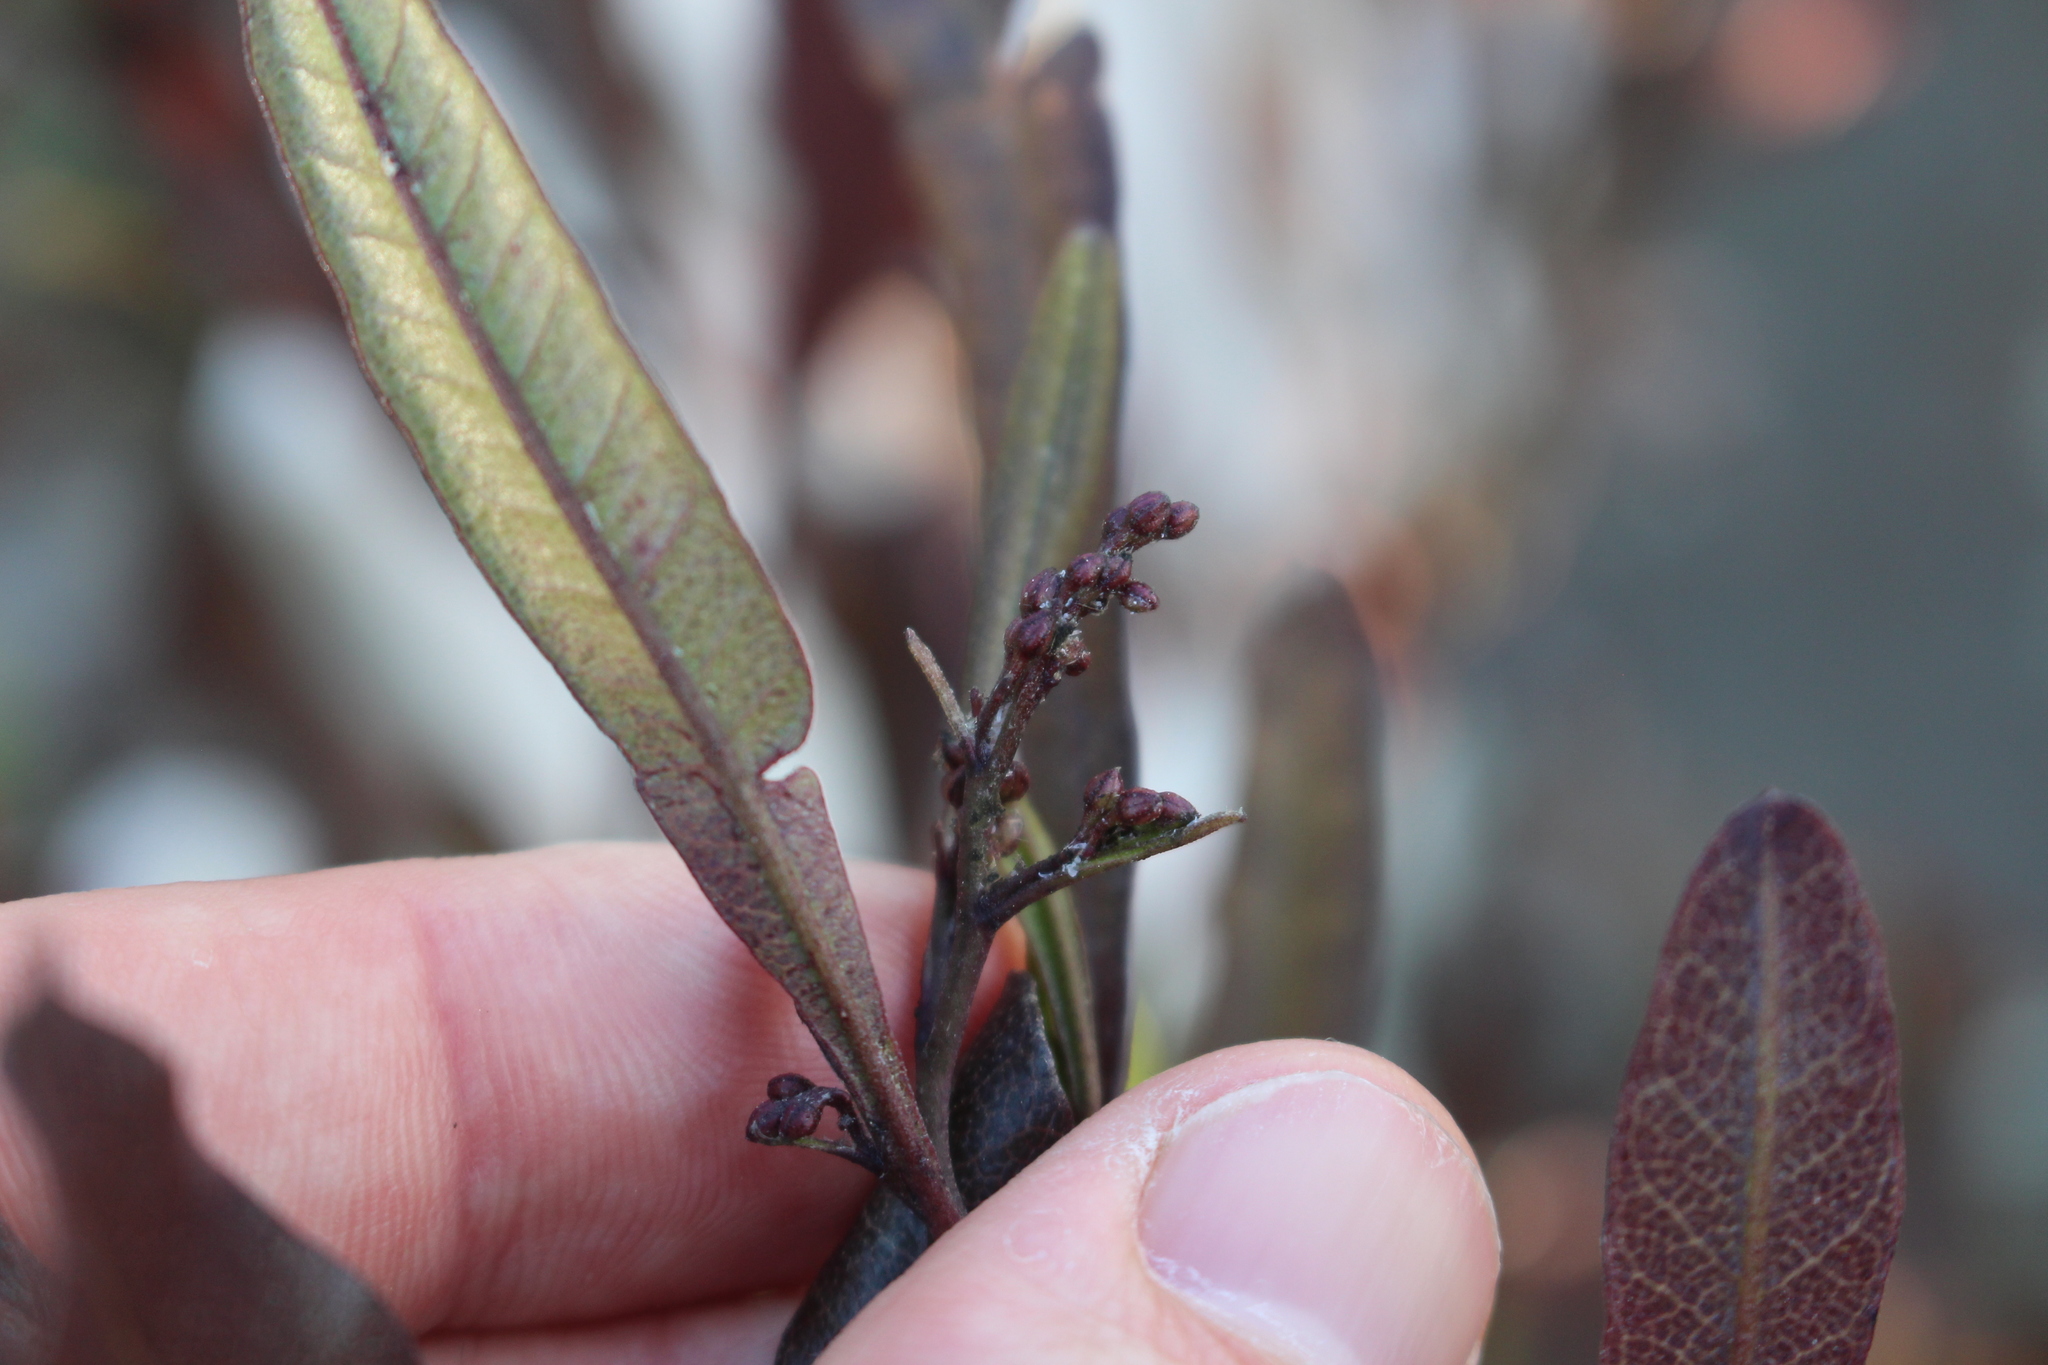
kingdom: Plantae
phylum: Tracheophyta
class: Magnoliopsida
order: Sapindales
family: Sapindaceae
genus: Dodonaea
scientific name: Dodonaea viscosa
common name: Hopbush
